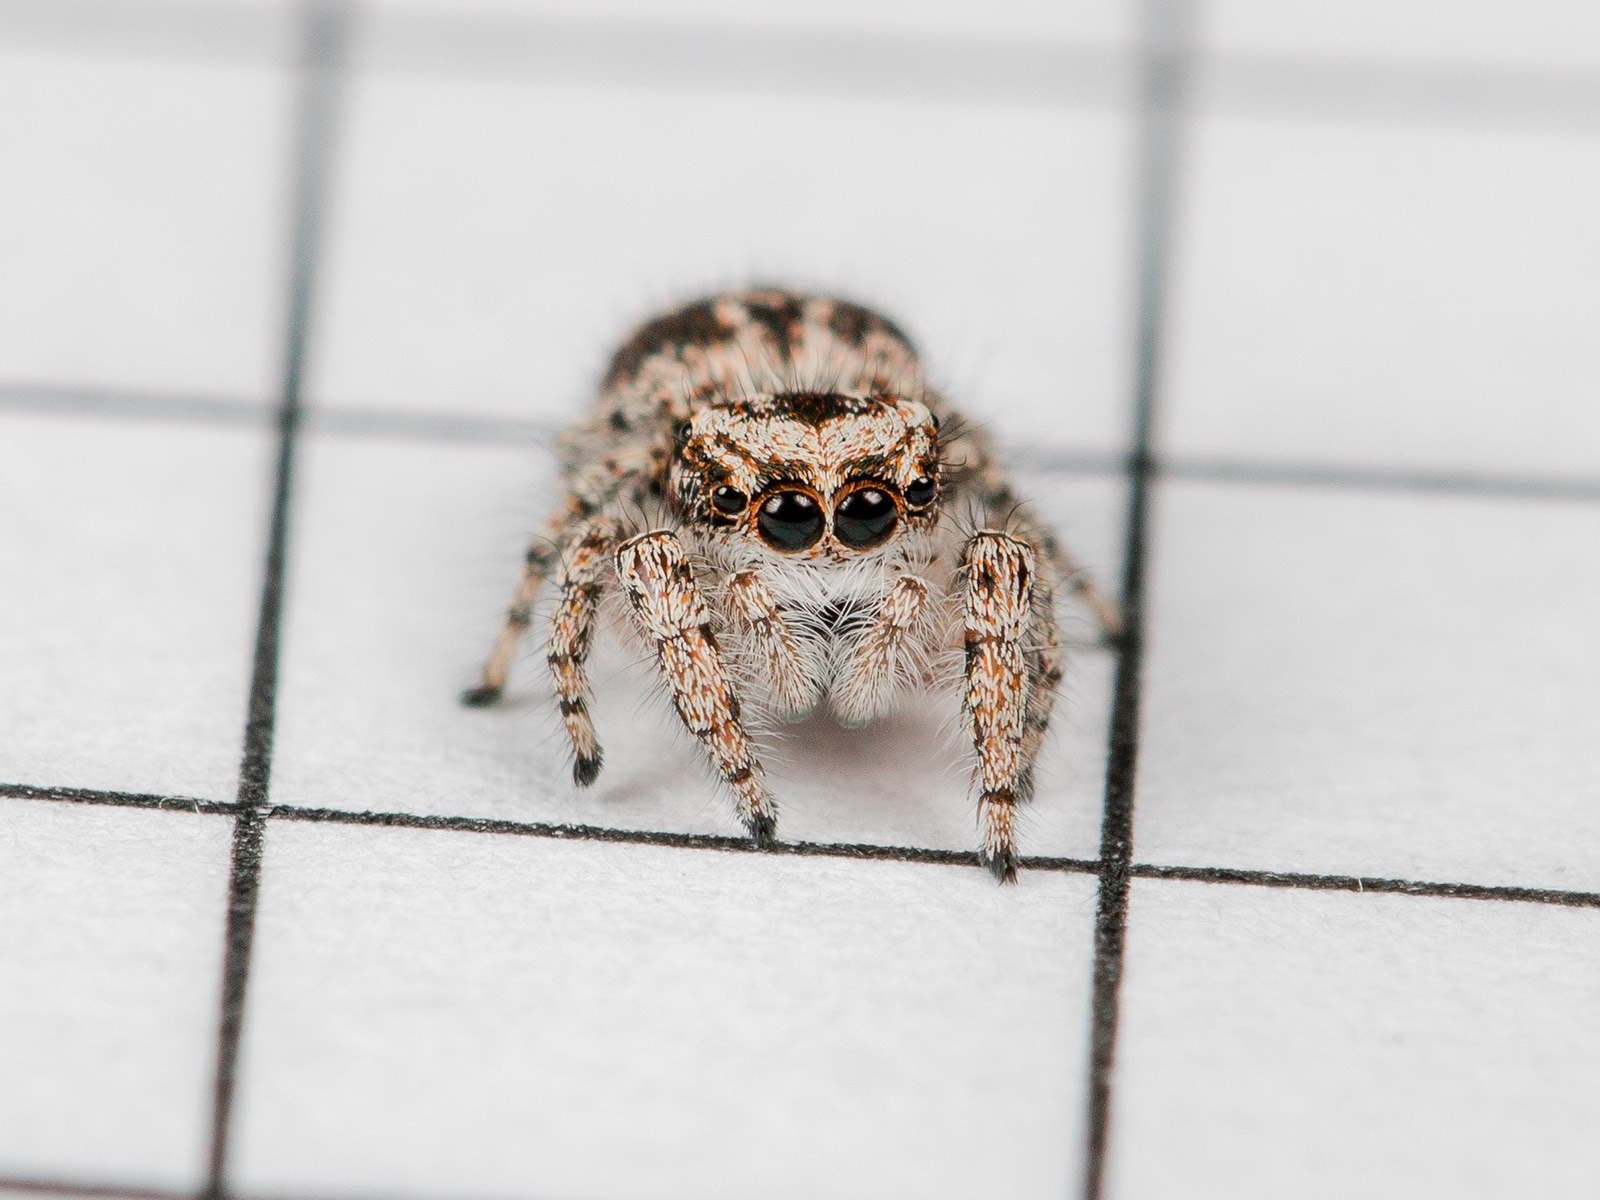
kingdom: Animalia
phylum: Arthropoda
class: Arachnida
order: Araneae
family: Salticidae
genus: Pseudomogrus
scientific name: Pseudomogrus dalaensis
